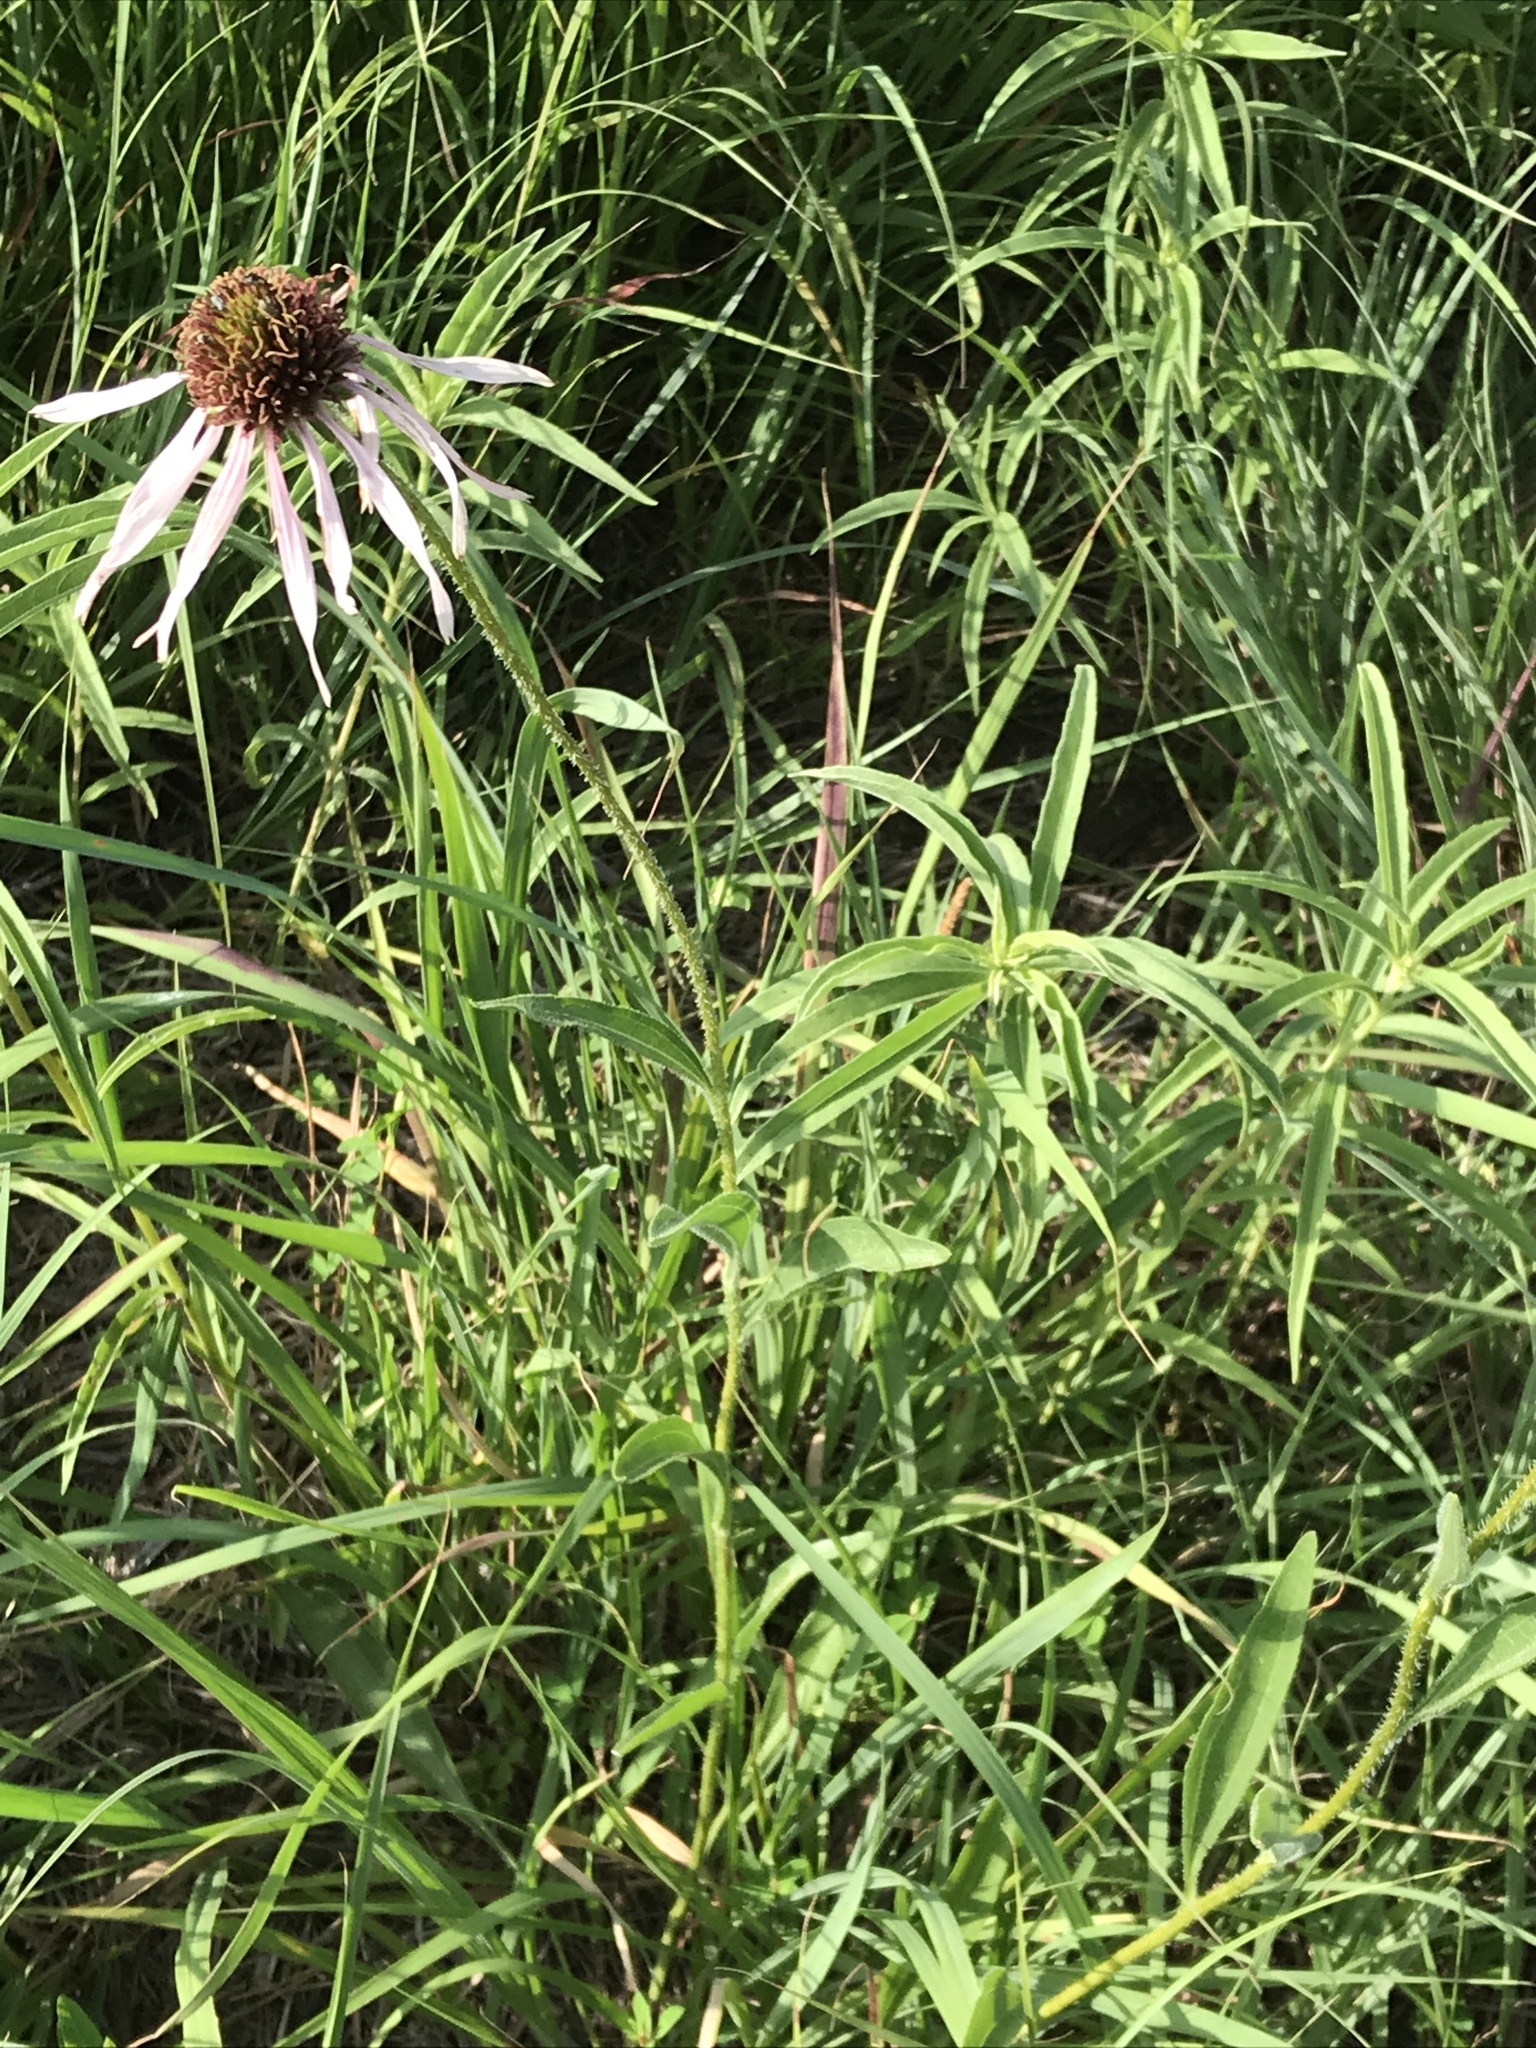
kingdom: Plantae
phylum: Tracheophyta
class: Magnoliopsida
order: Asterales
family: Asteraceae
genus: Echinacea
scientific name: Echinacea pallida
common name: Pale echinacea
